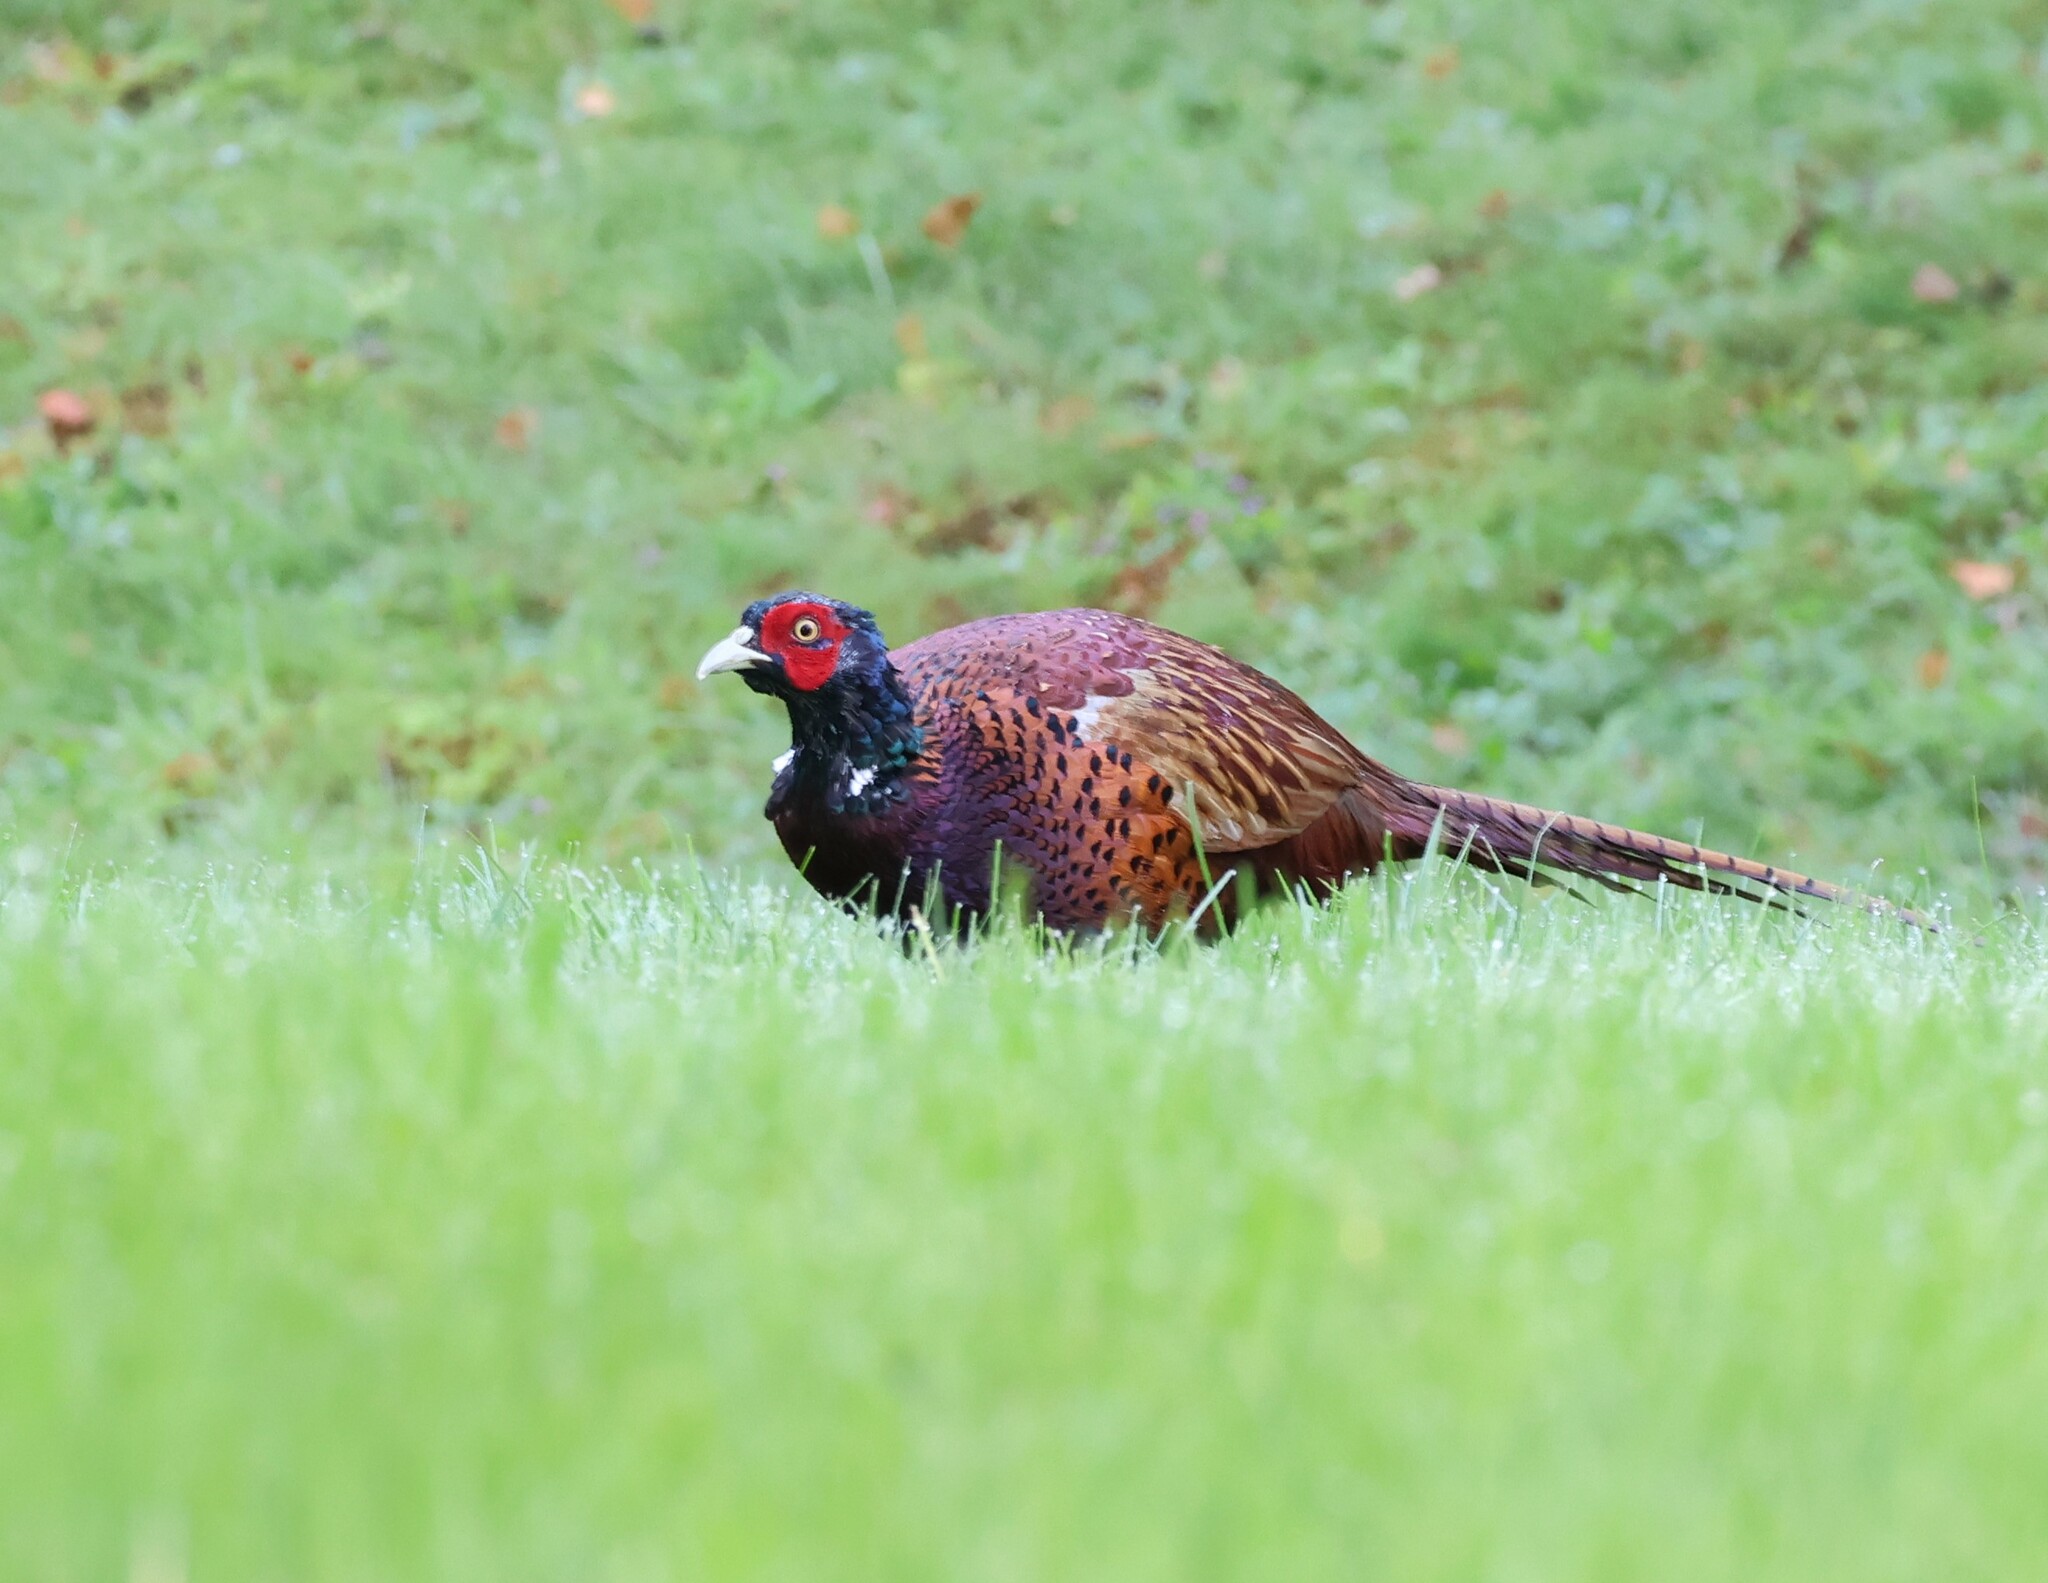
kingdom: Animalia
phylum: Chordata
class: Aves
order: Galliformes
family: Phasianidae
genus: Phasianus
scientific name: Phasianus colchicus
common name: Common pheasant
